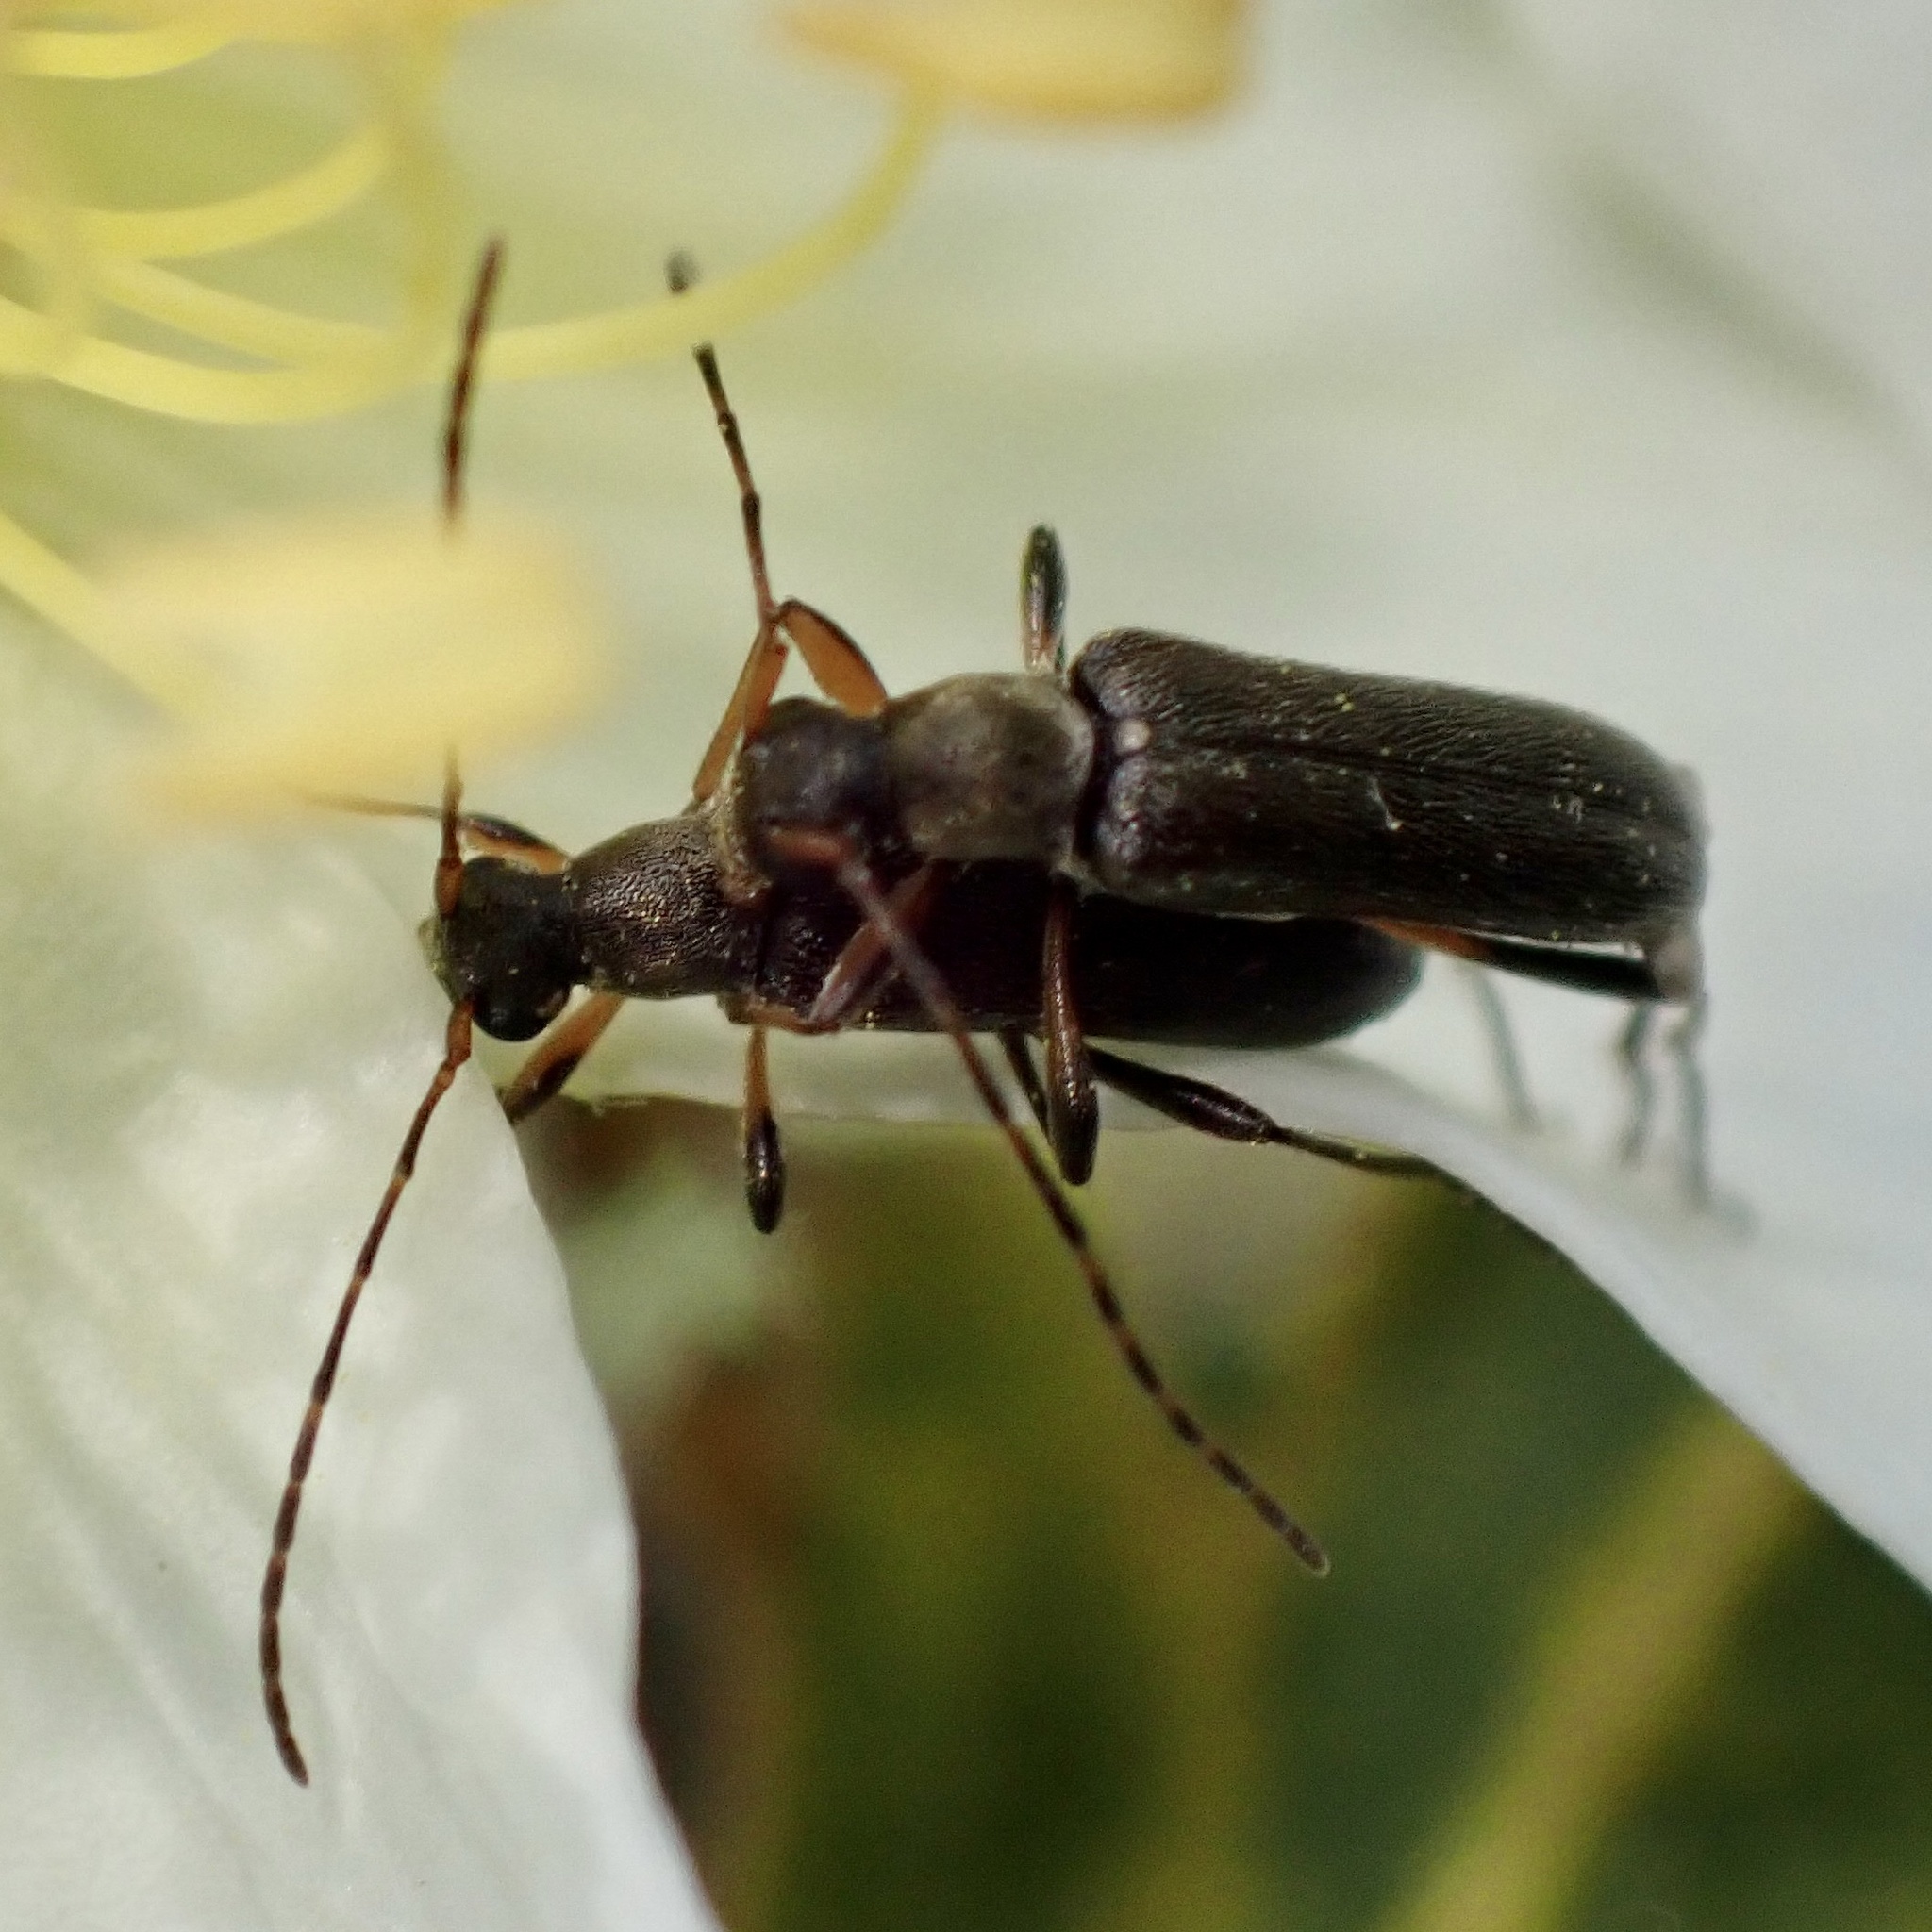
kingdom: Animalia
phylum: Arthropoda
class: Insecta
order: Coleoptera
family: Cerambycidae
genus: Grammoptera
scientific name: Grammoptera ruficornis
